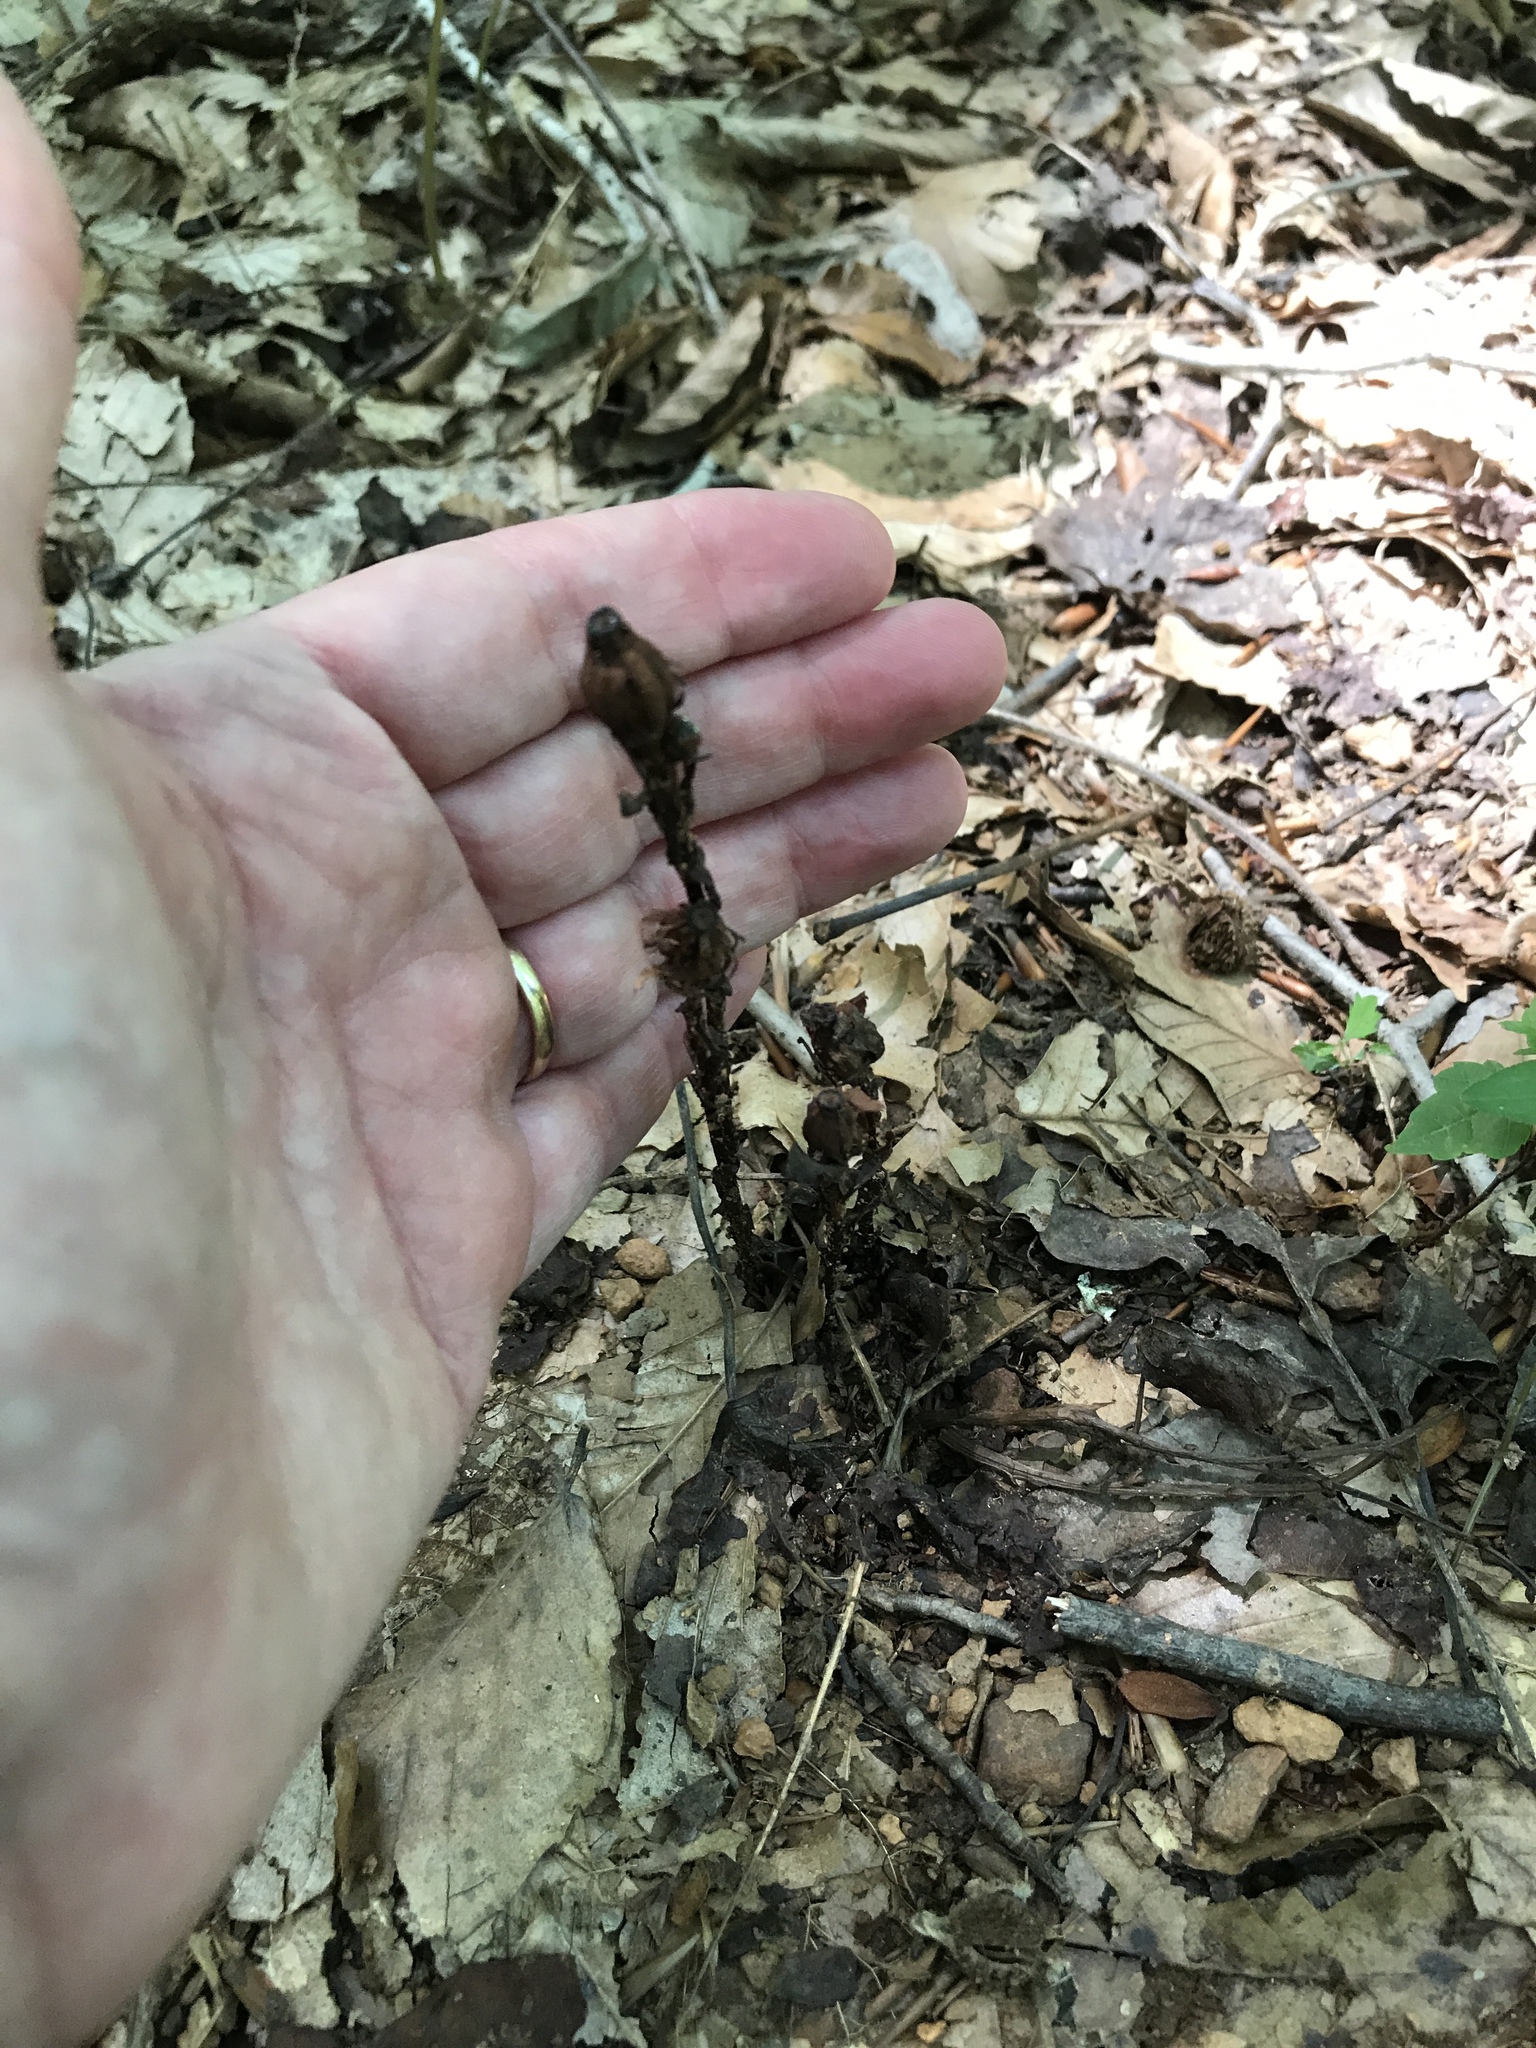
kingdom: Plantae
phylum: Tracheophyta
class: Magnoliopsida
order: Ericales
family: Ericaceae
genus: Monotropa
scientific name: Monotropa uniflora
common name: Convulsion root
